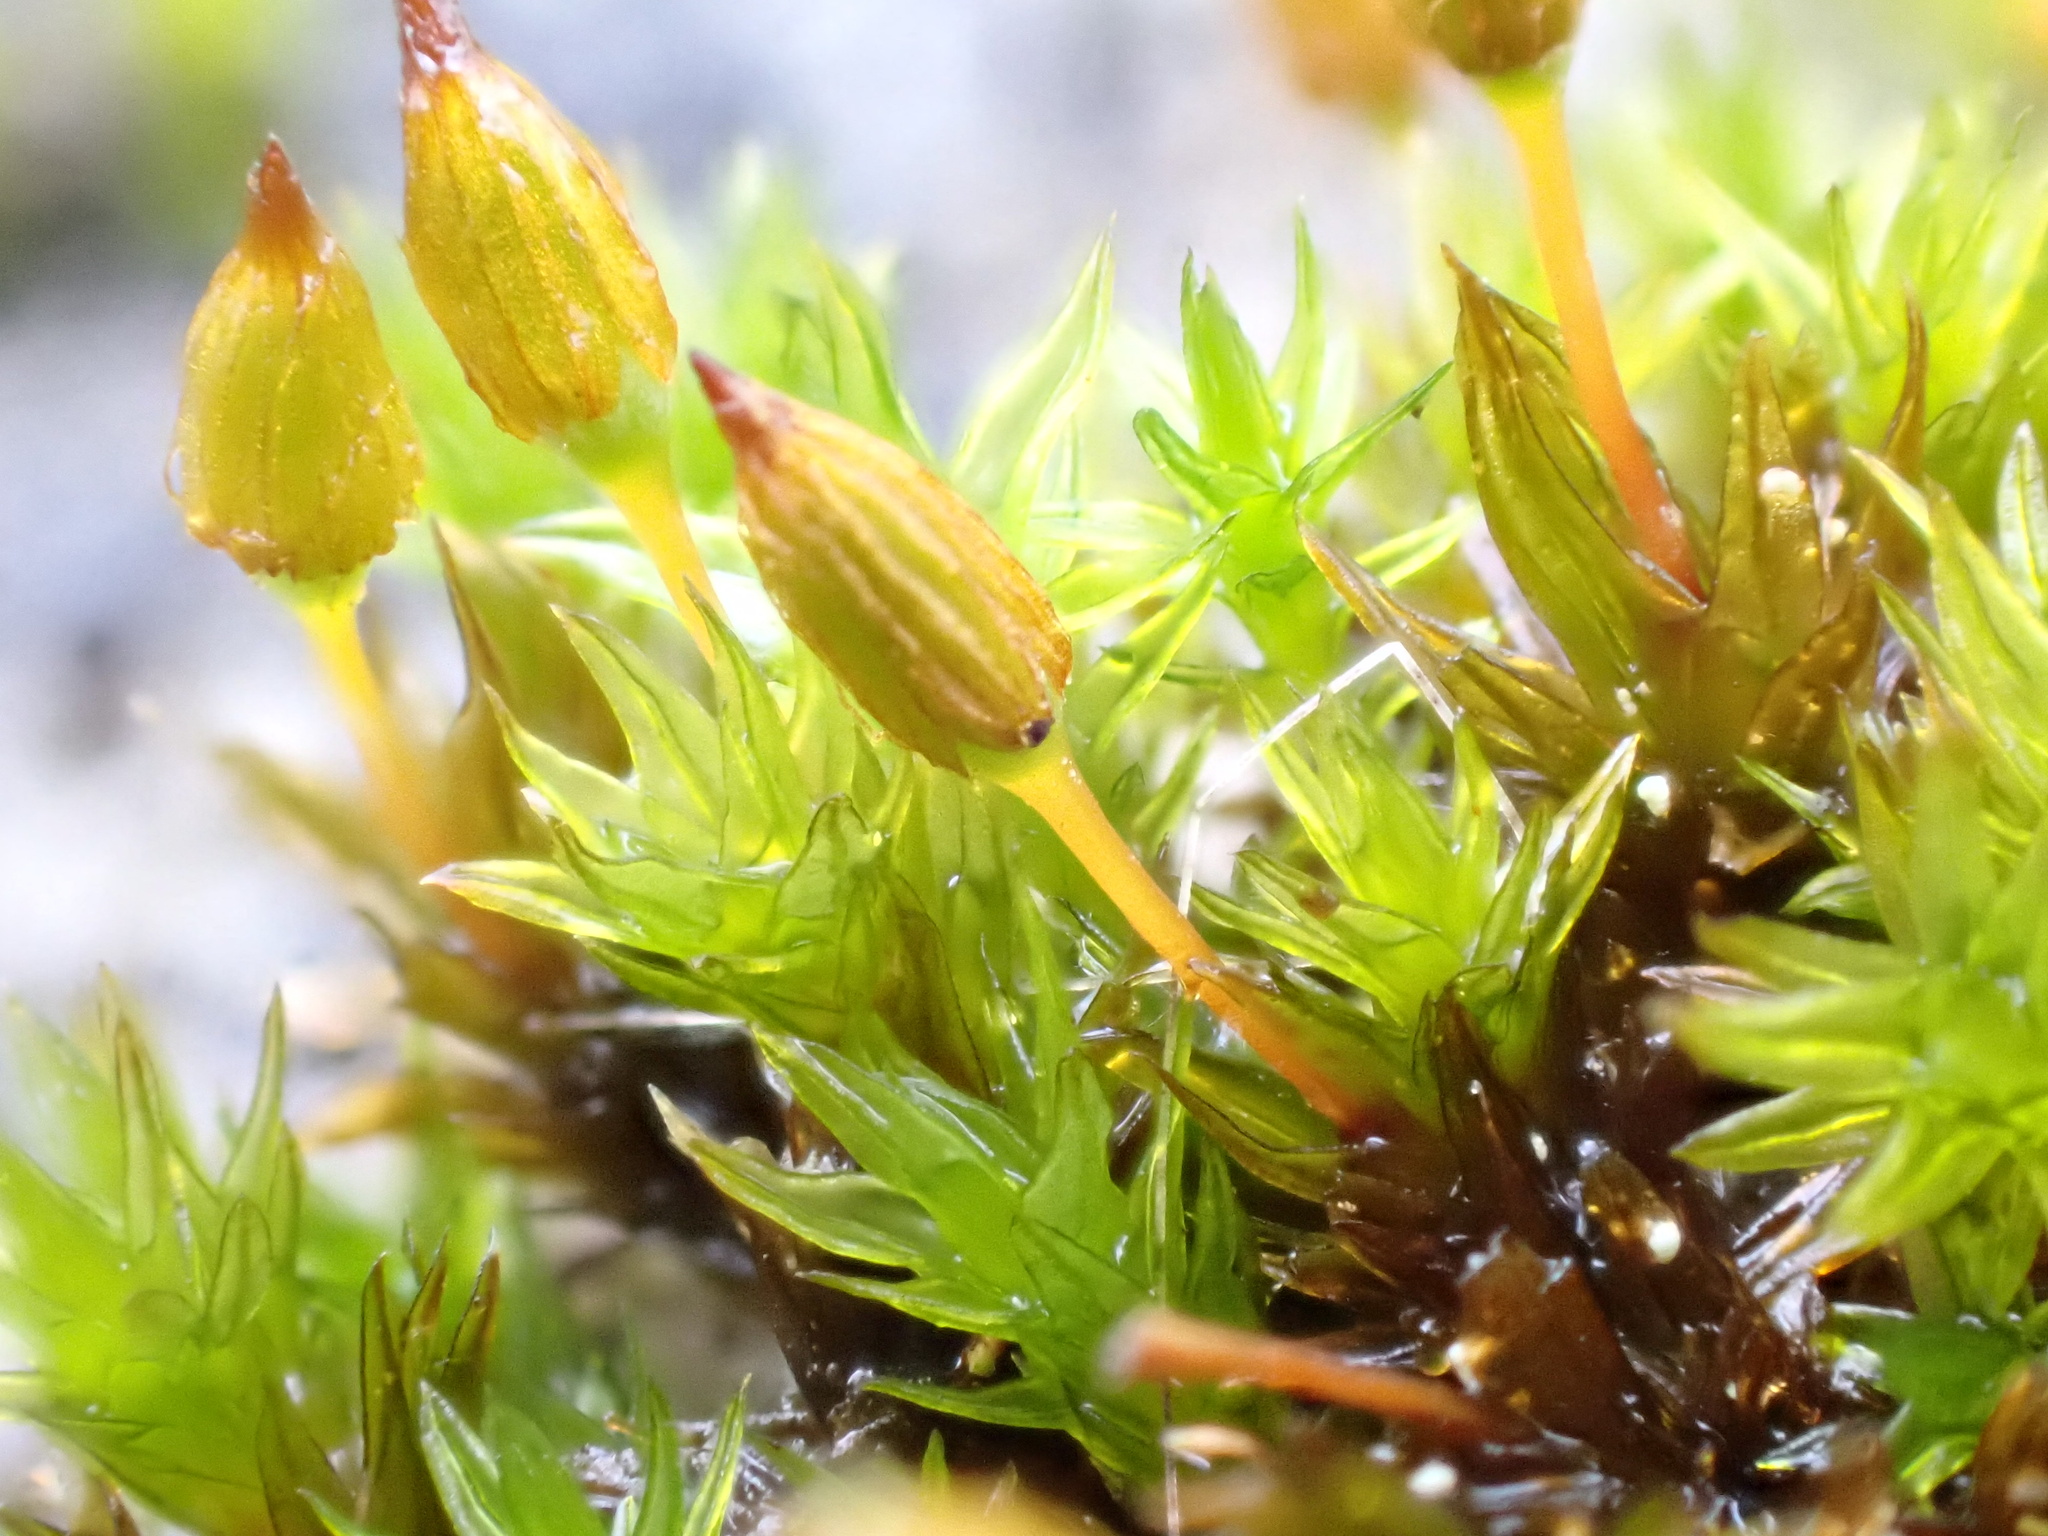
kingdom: Plantae
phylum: Bryophyta
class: Bryopsida
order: Orthotrichales
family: Orthotrichaceae
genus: Orthotrichum
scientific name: Orthotrichum anomalum
